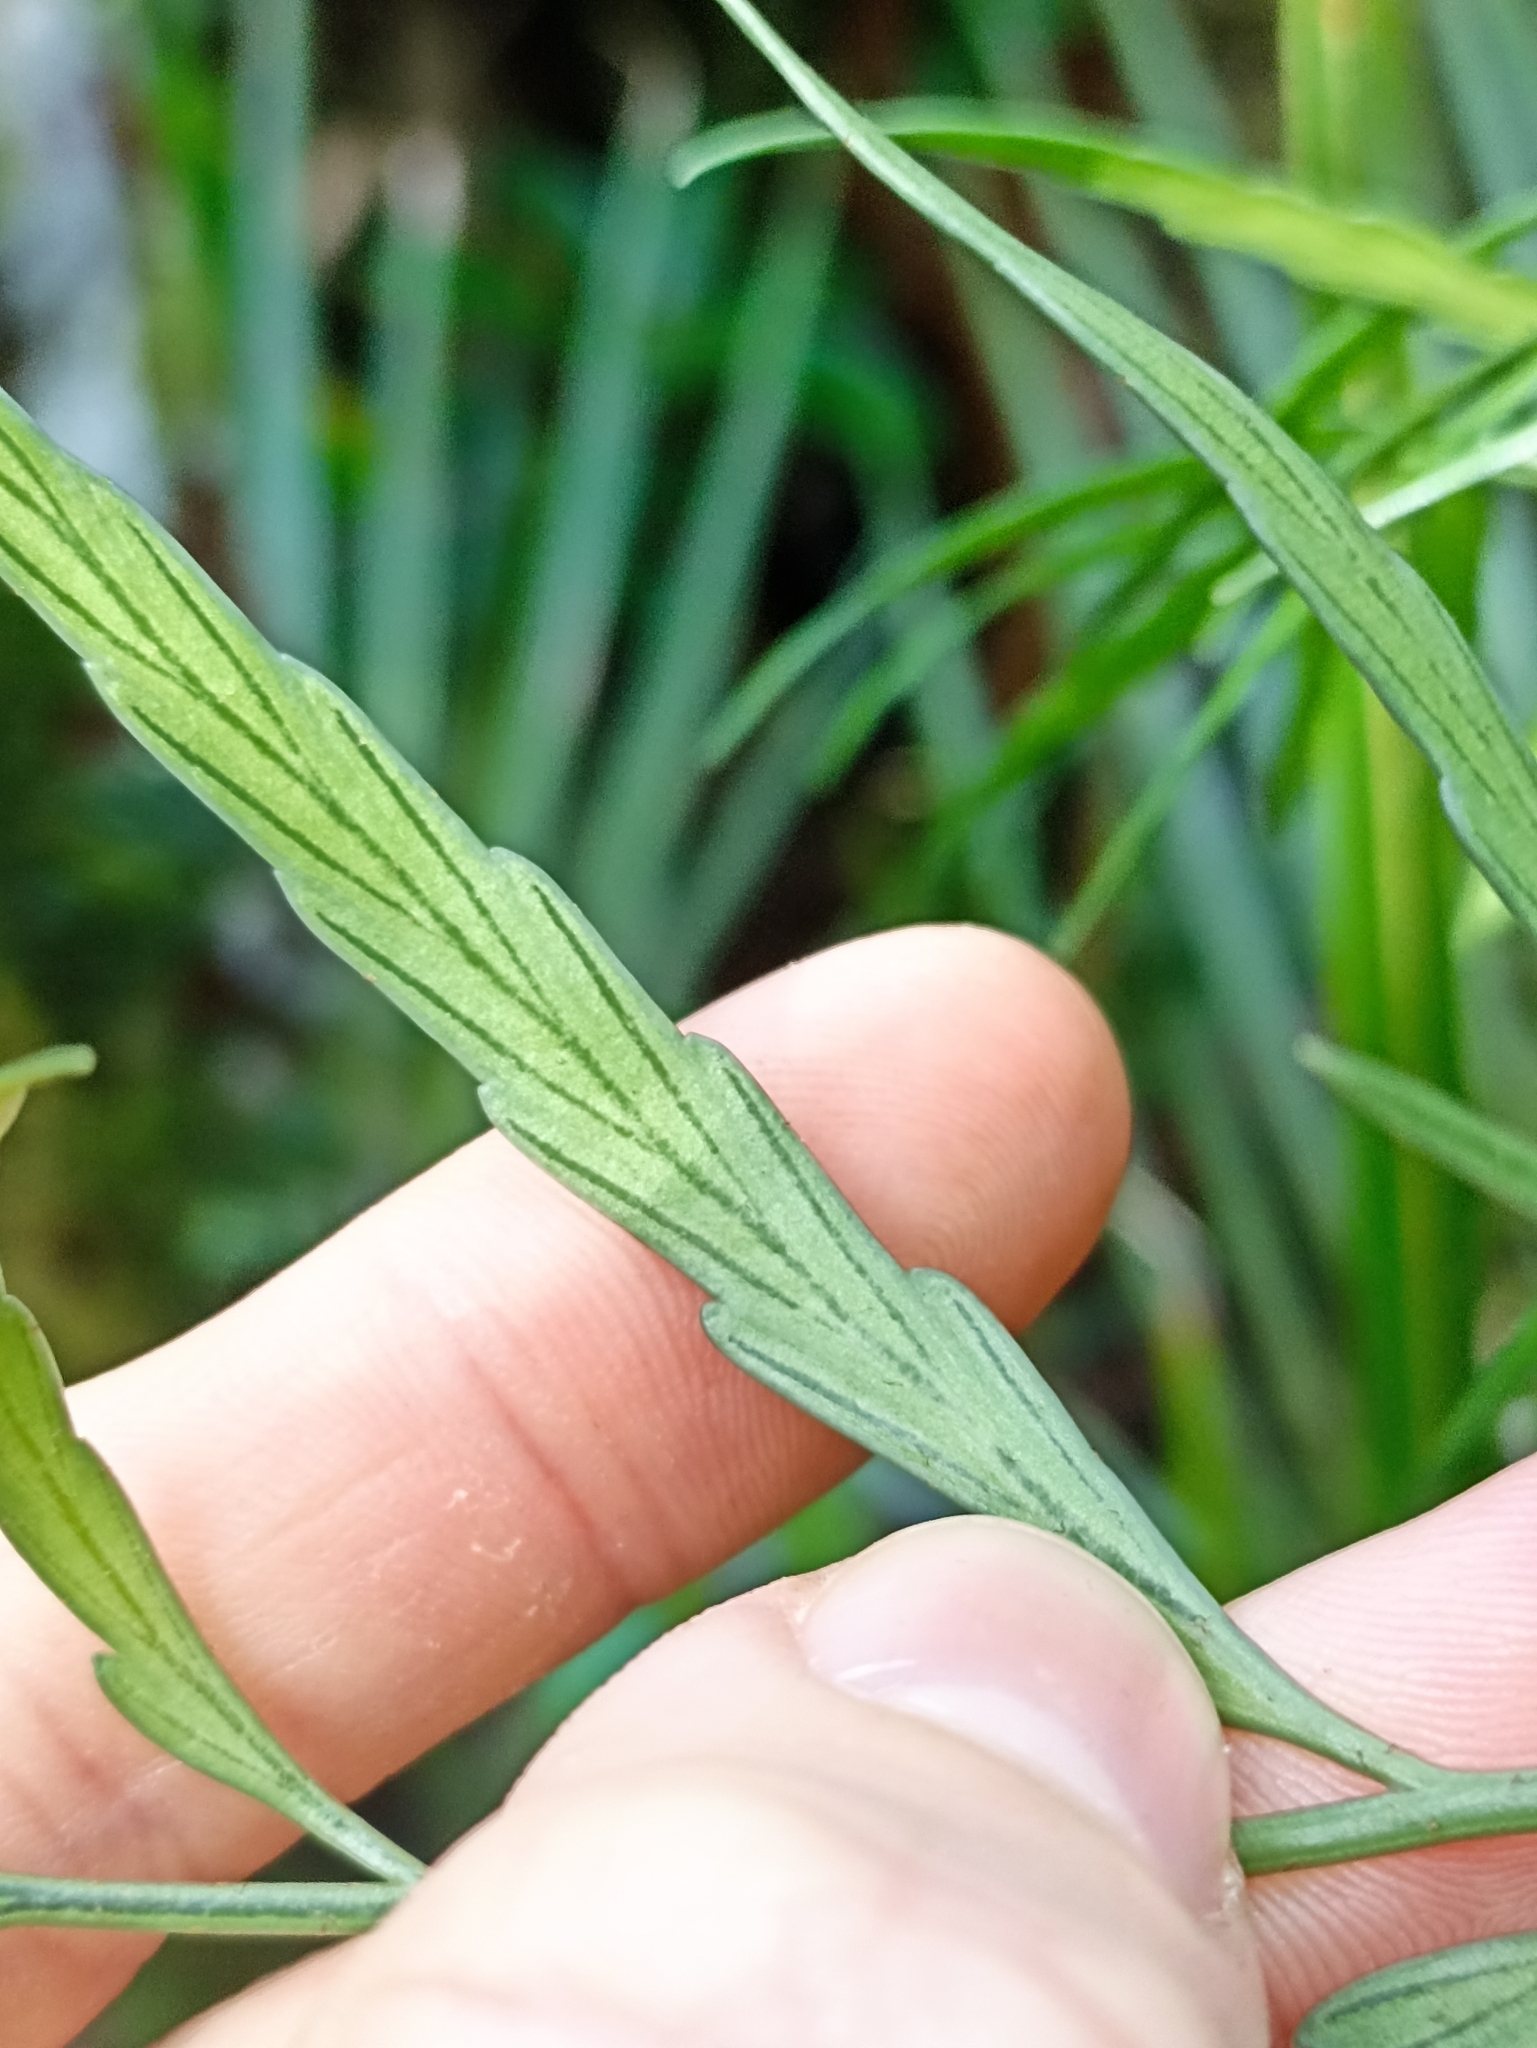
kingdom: Plantae
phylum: Tracheophyta
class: Polypodiopsida
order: Polypodiales
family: Aspleniaceae
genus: Asplenium
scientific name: Asplenium flaccidum
